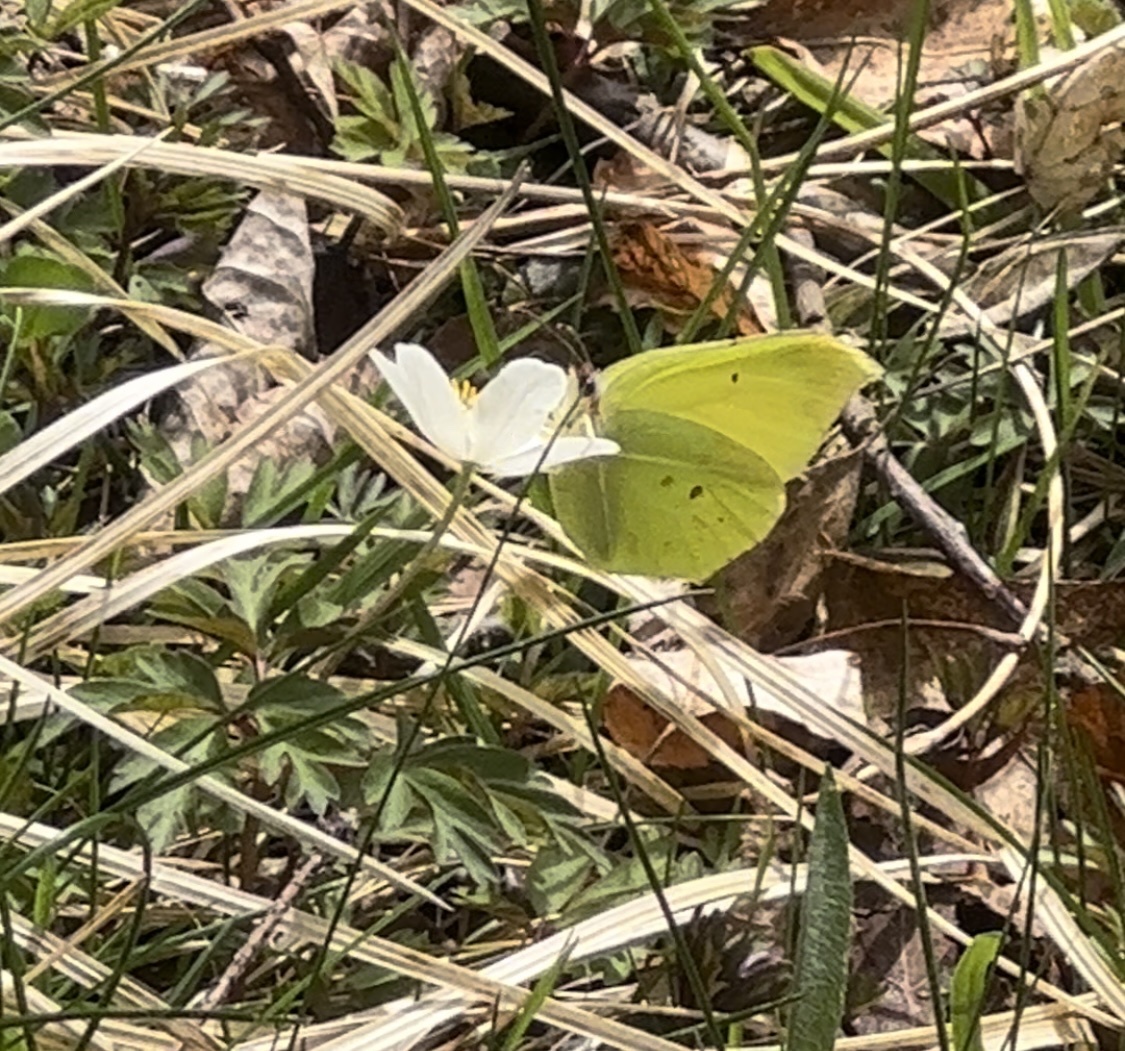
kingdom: Animalia
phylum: Arthropoda
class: Insecta
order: Lepidoptera
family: Pieridae
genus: Gonepteryx
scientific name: Gonepteryx rhamni
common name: Brimstone
